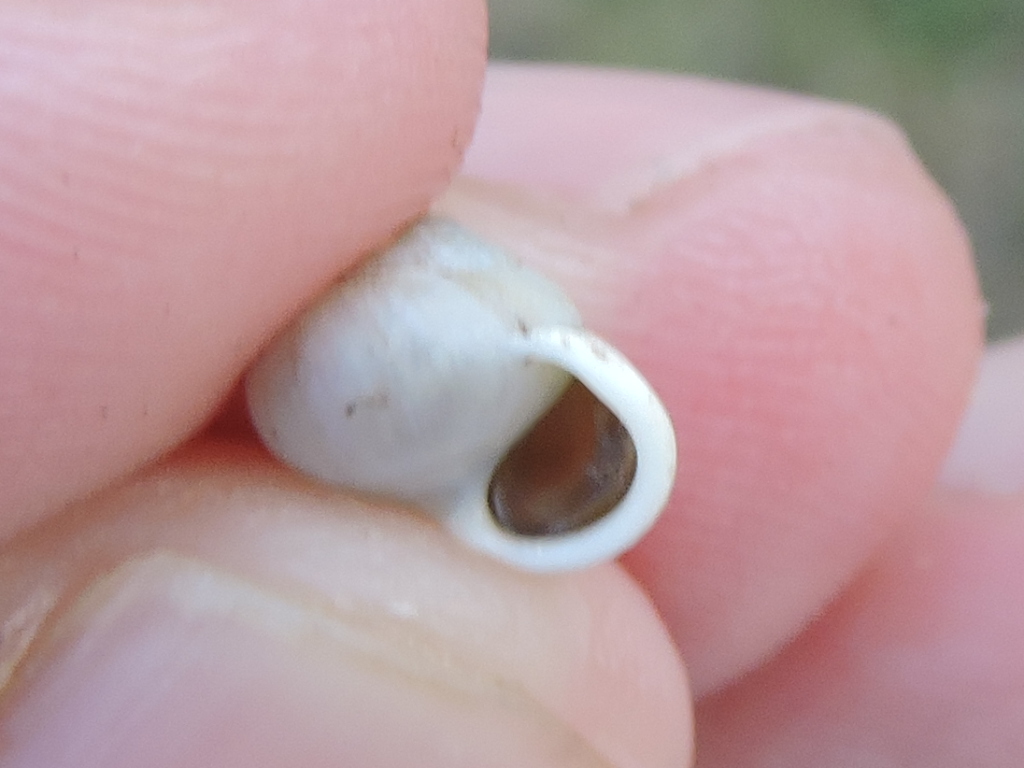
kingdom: Animalia
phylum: Mollusca
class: Gastropoda
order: Cycloneritida
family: Helicinidae
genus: Helicina
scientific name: Helicina orbiculata
